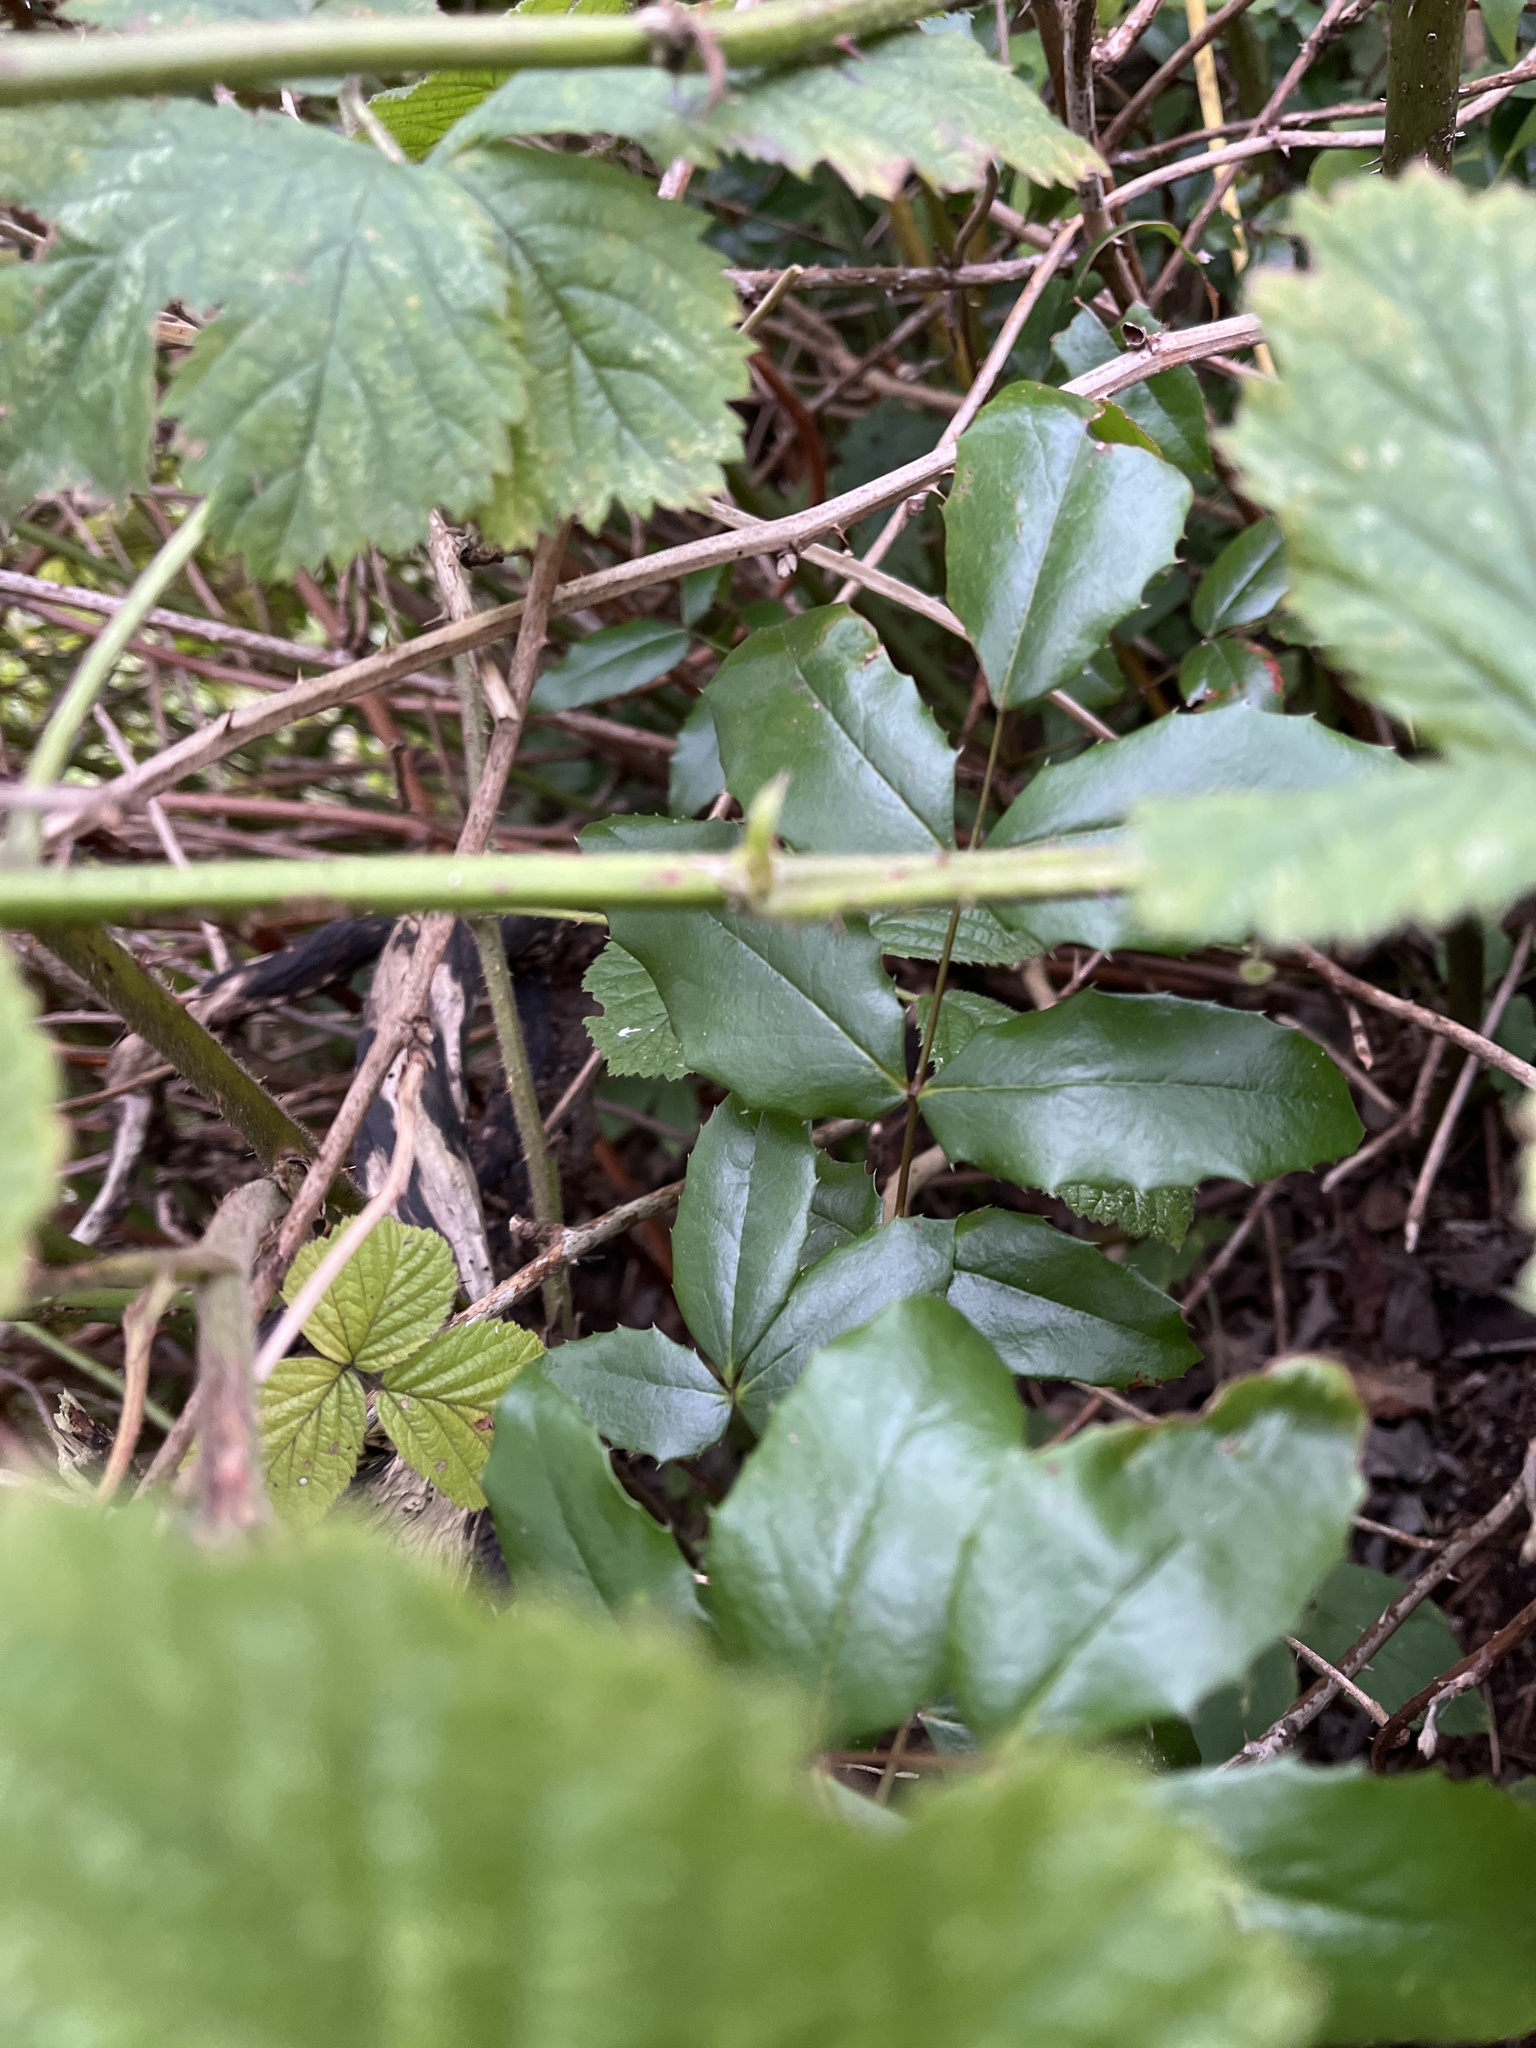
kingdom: Plantae
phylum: Tracheophyta
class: Magnoliopsida
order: Ranunculales
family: Berberidaceae
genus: Mahonia
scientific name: Mahonia aquifolium
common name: Oregon-grape
